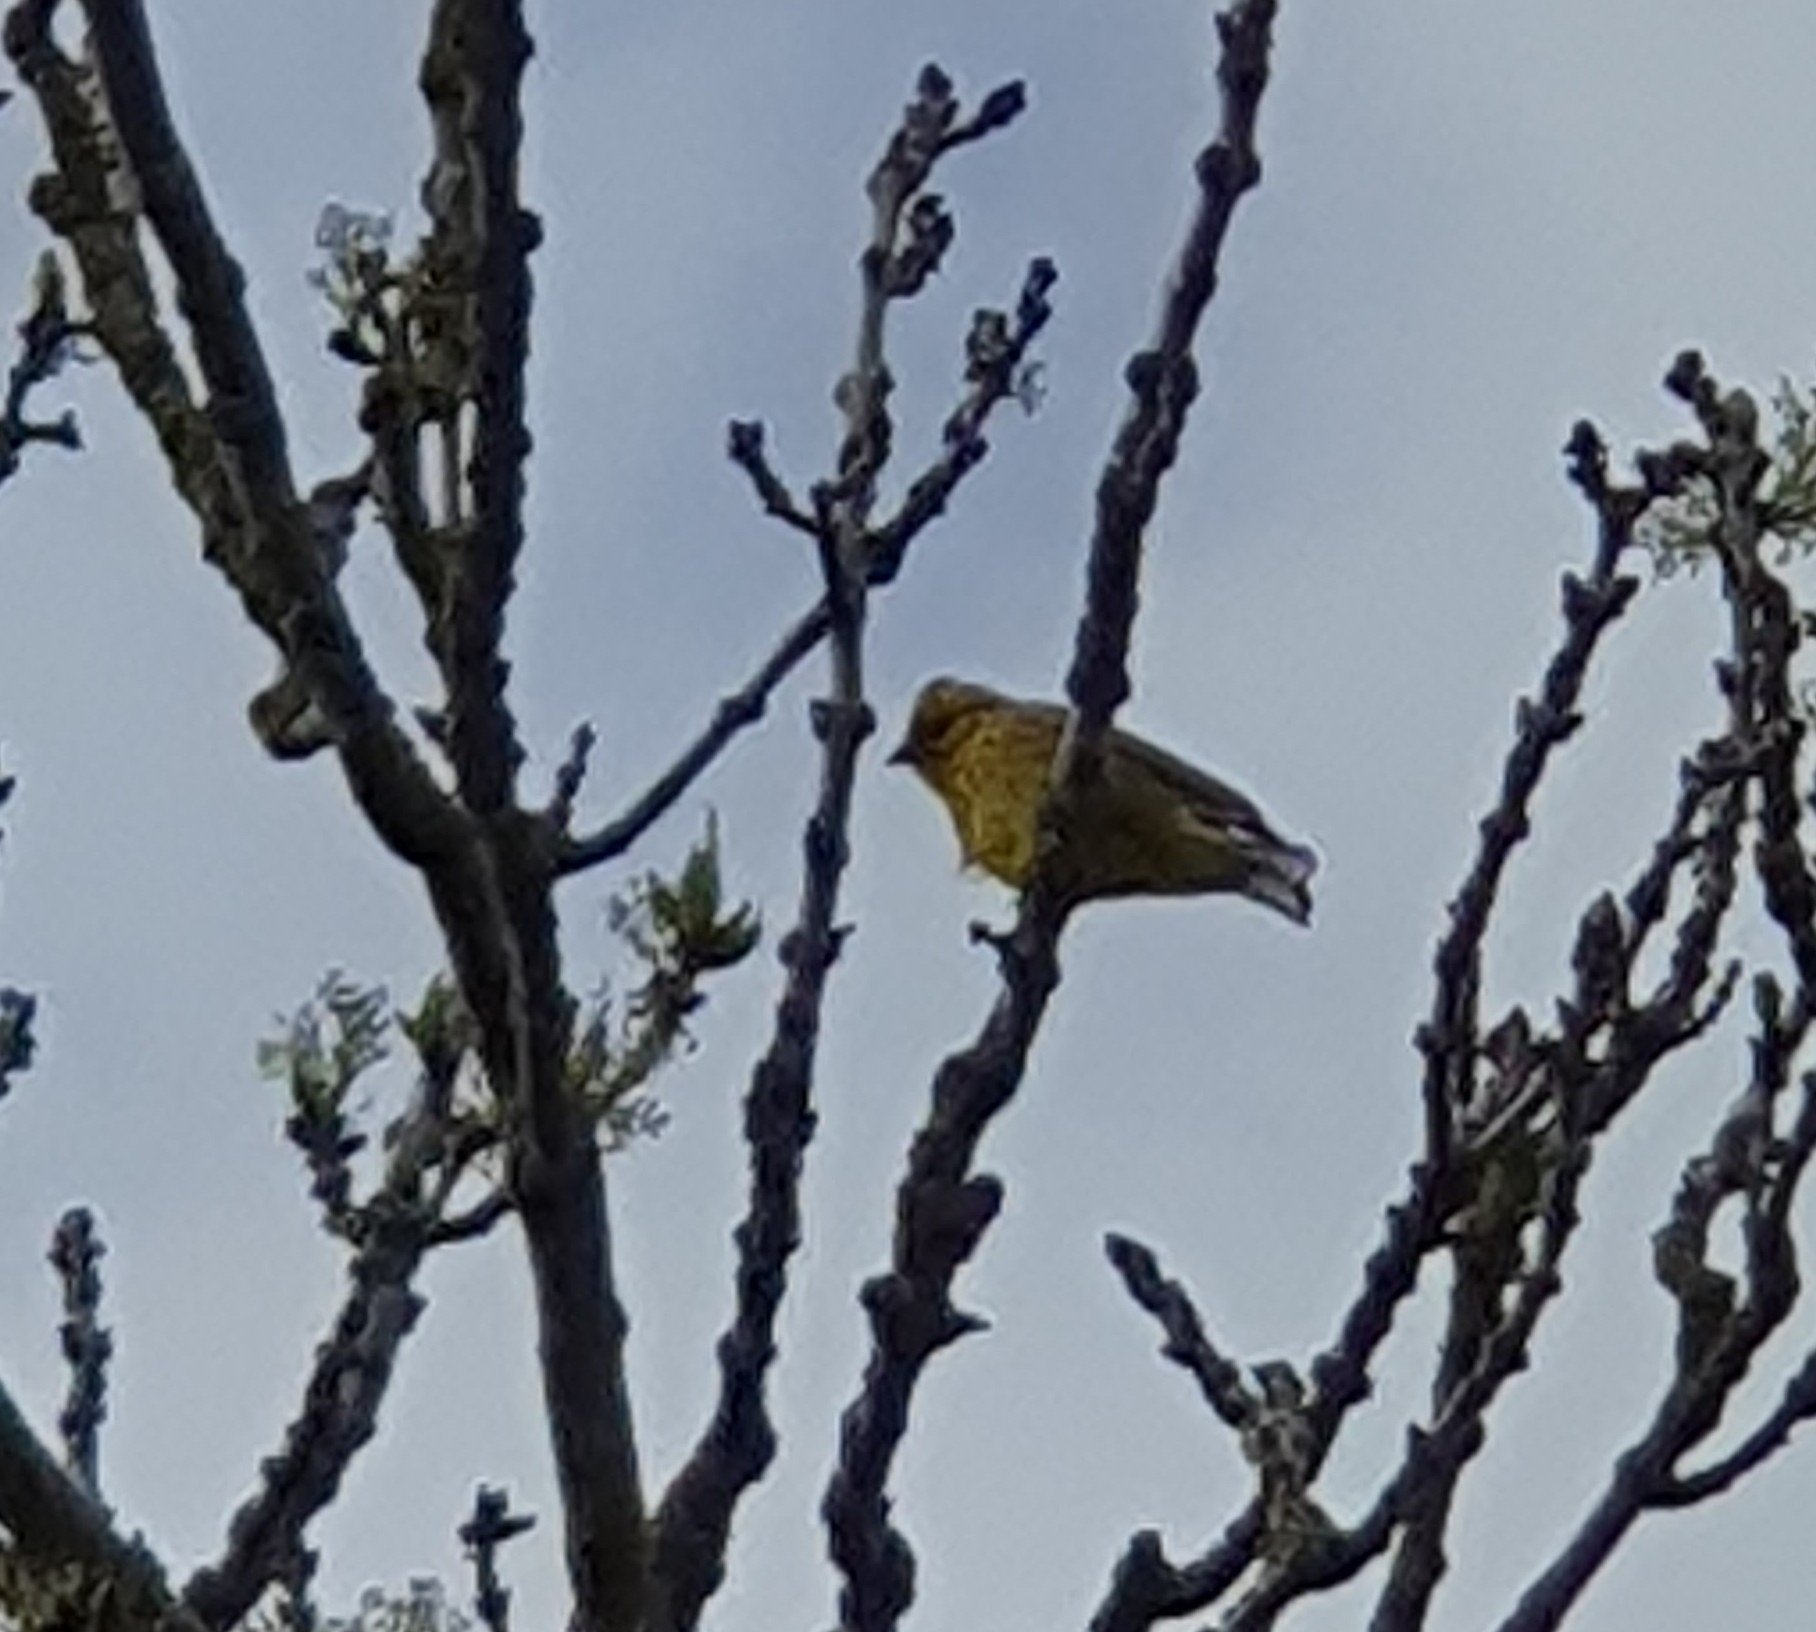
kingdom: Animalia
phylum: Chordata
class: Aves
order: Passeriformes
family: Emberizidae
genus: Emberiza
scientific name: Emberiza citrinella
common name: Yellowhammer
